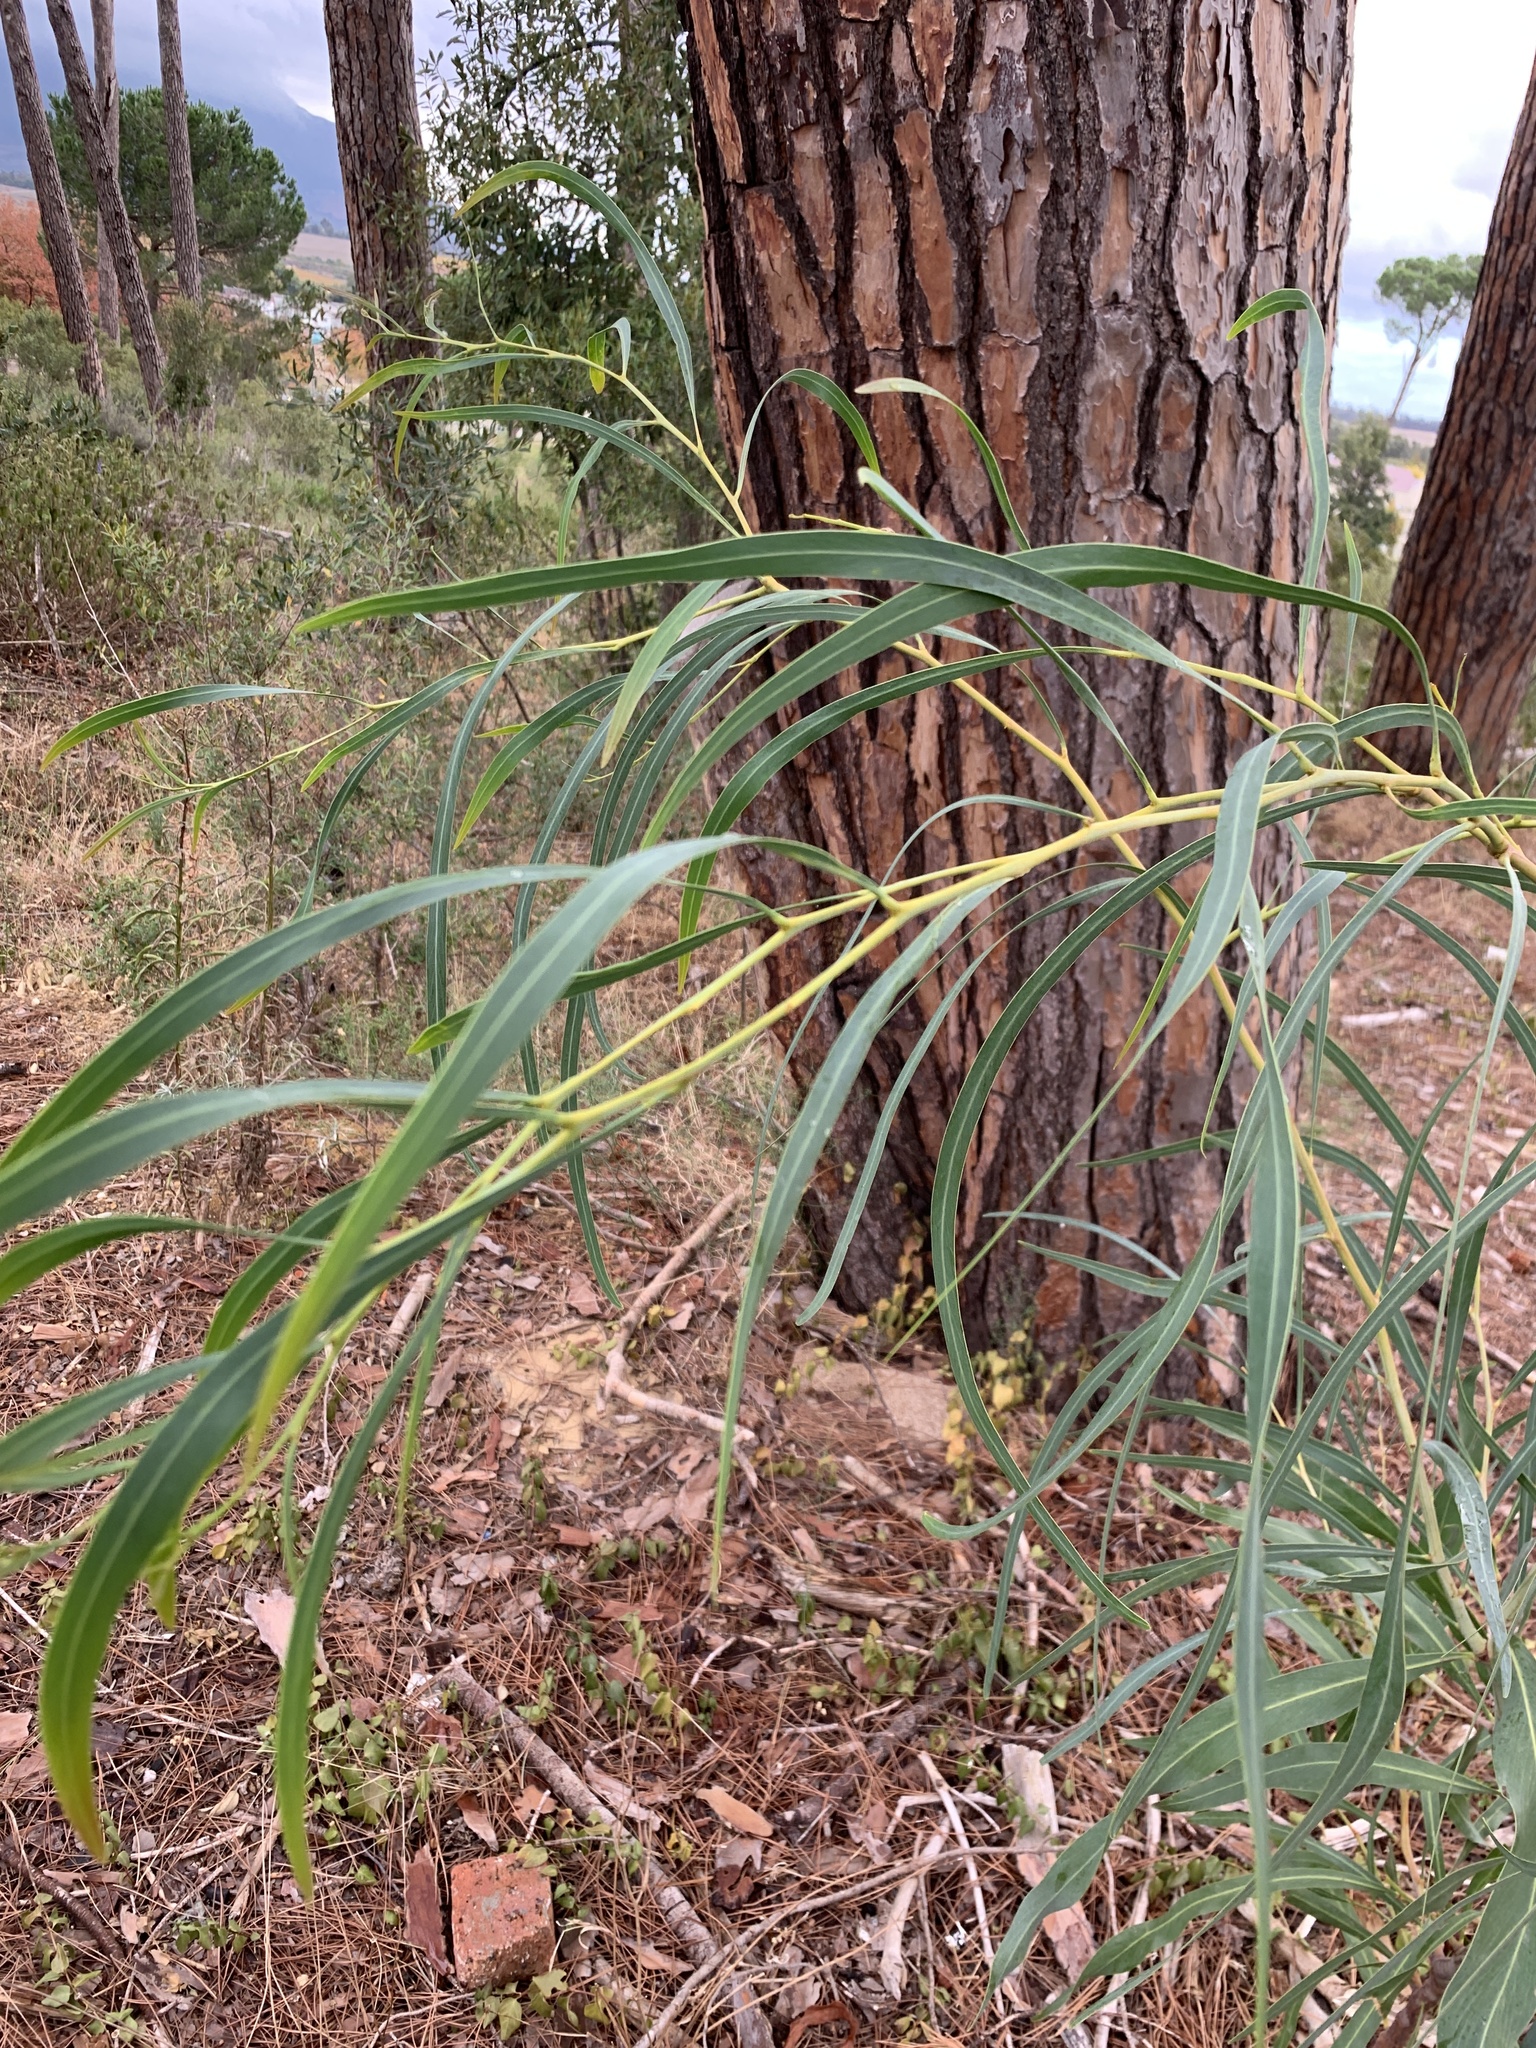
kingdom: Plantae
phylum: Tracheophyta
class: Magnoliopsida
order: Fabales
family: Fabaceae
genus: Acacia
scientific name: Acacia saligna
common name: Orange wattle
